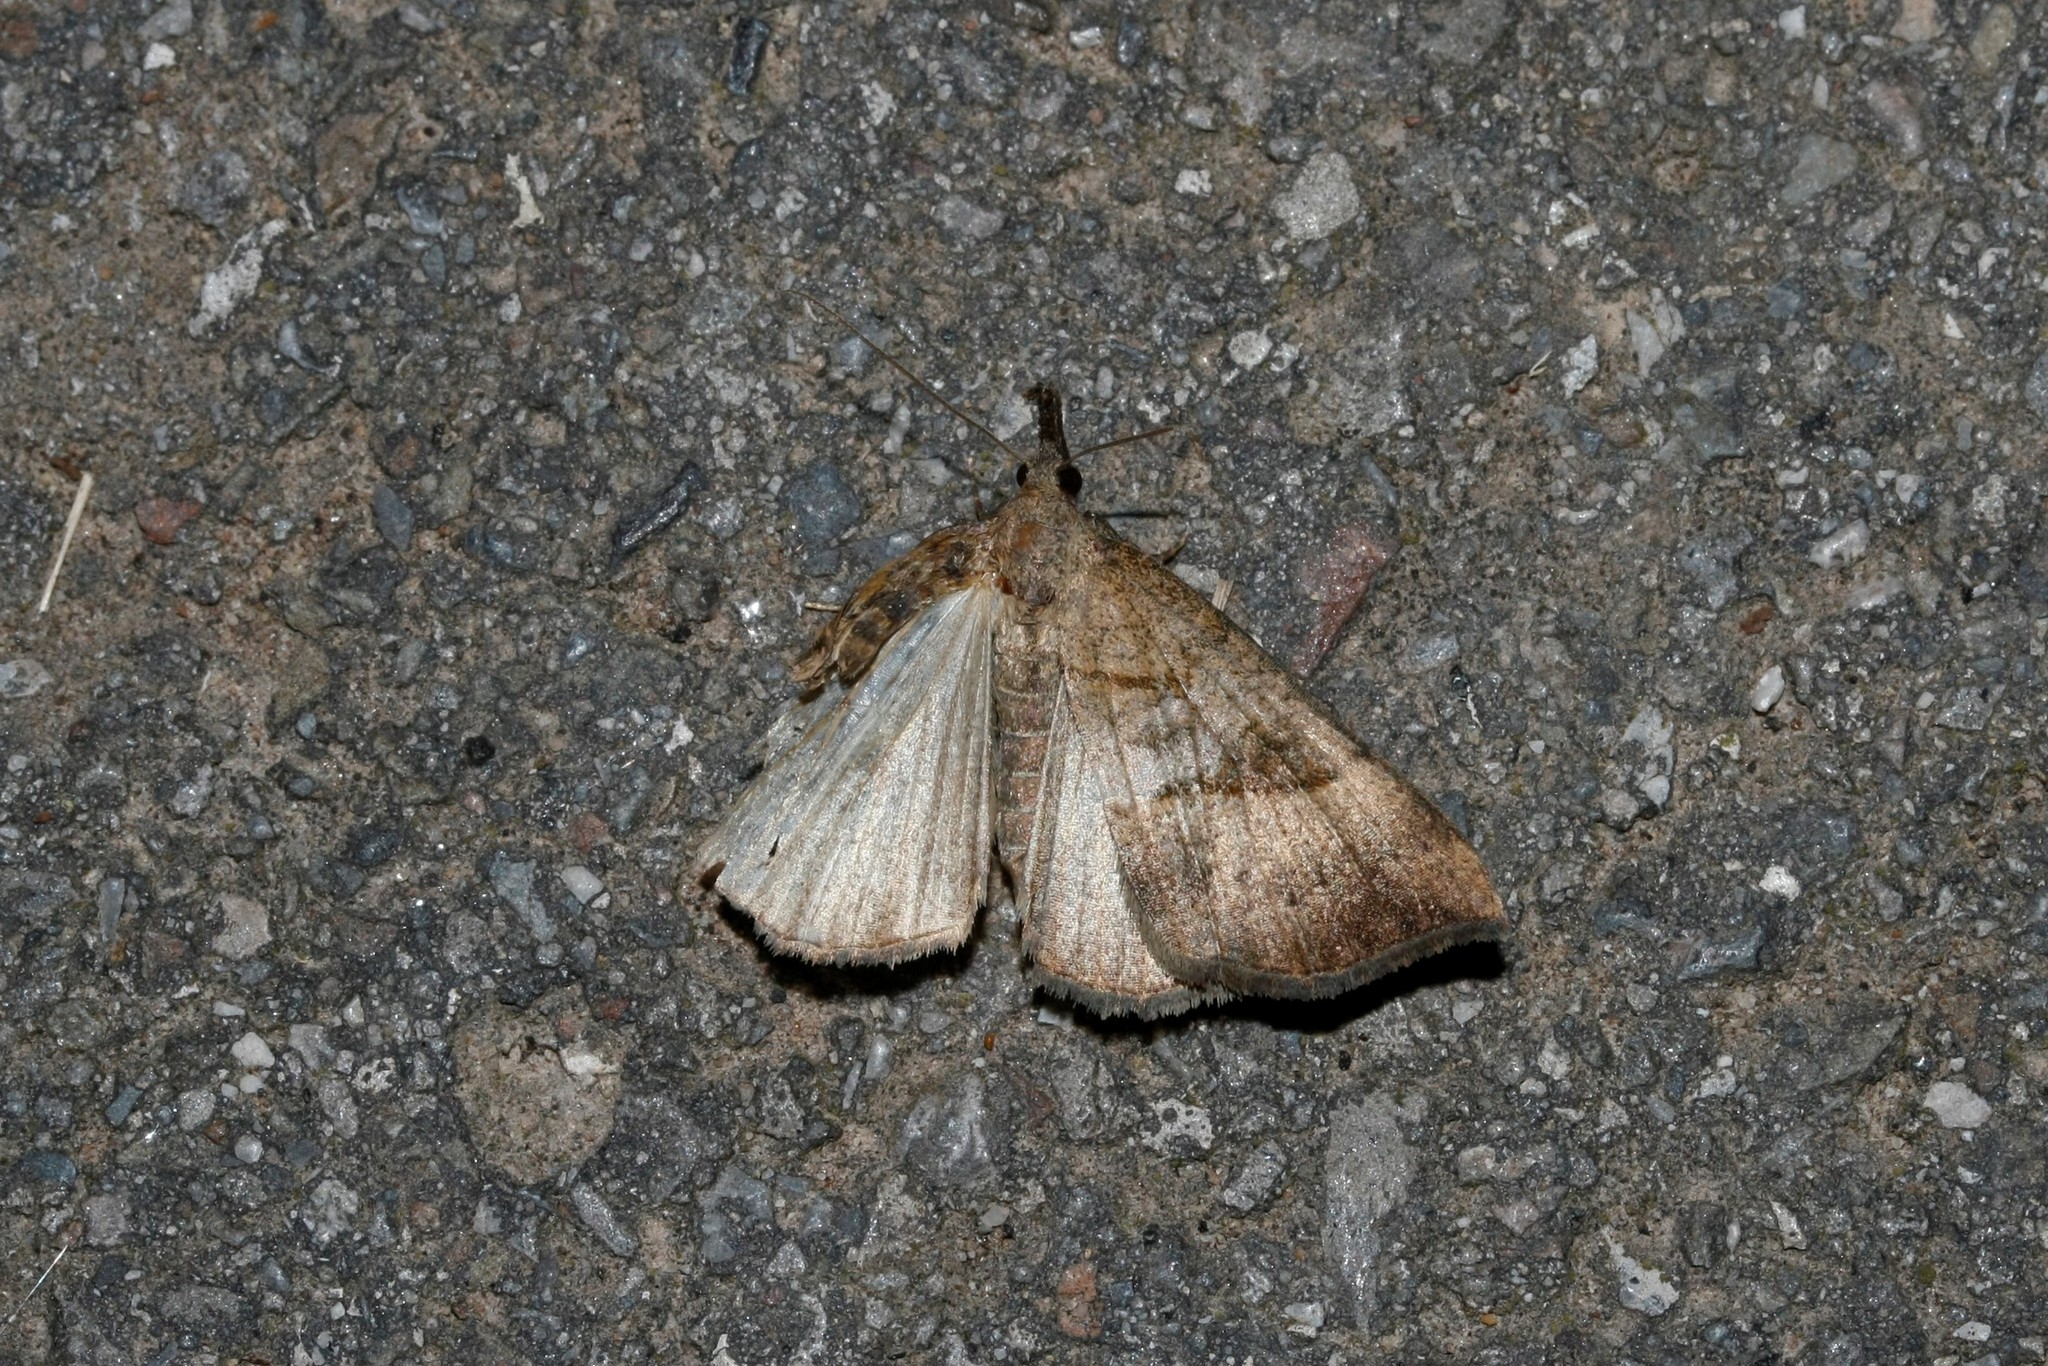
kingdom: Animalia
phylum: Arthropoda
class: Insecta
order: Lepidoptera
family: Erebidae
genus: Hypena
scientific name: Hypena proboscidalis
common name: Snout
